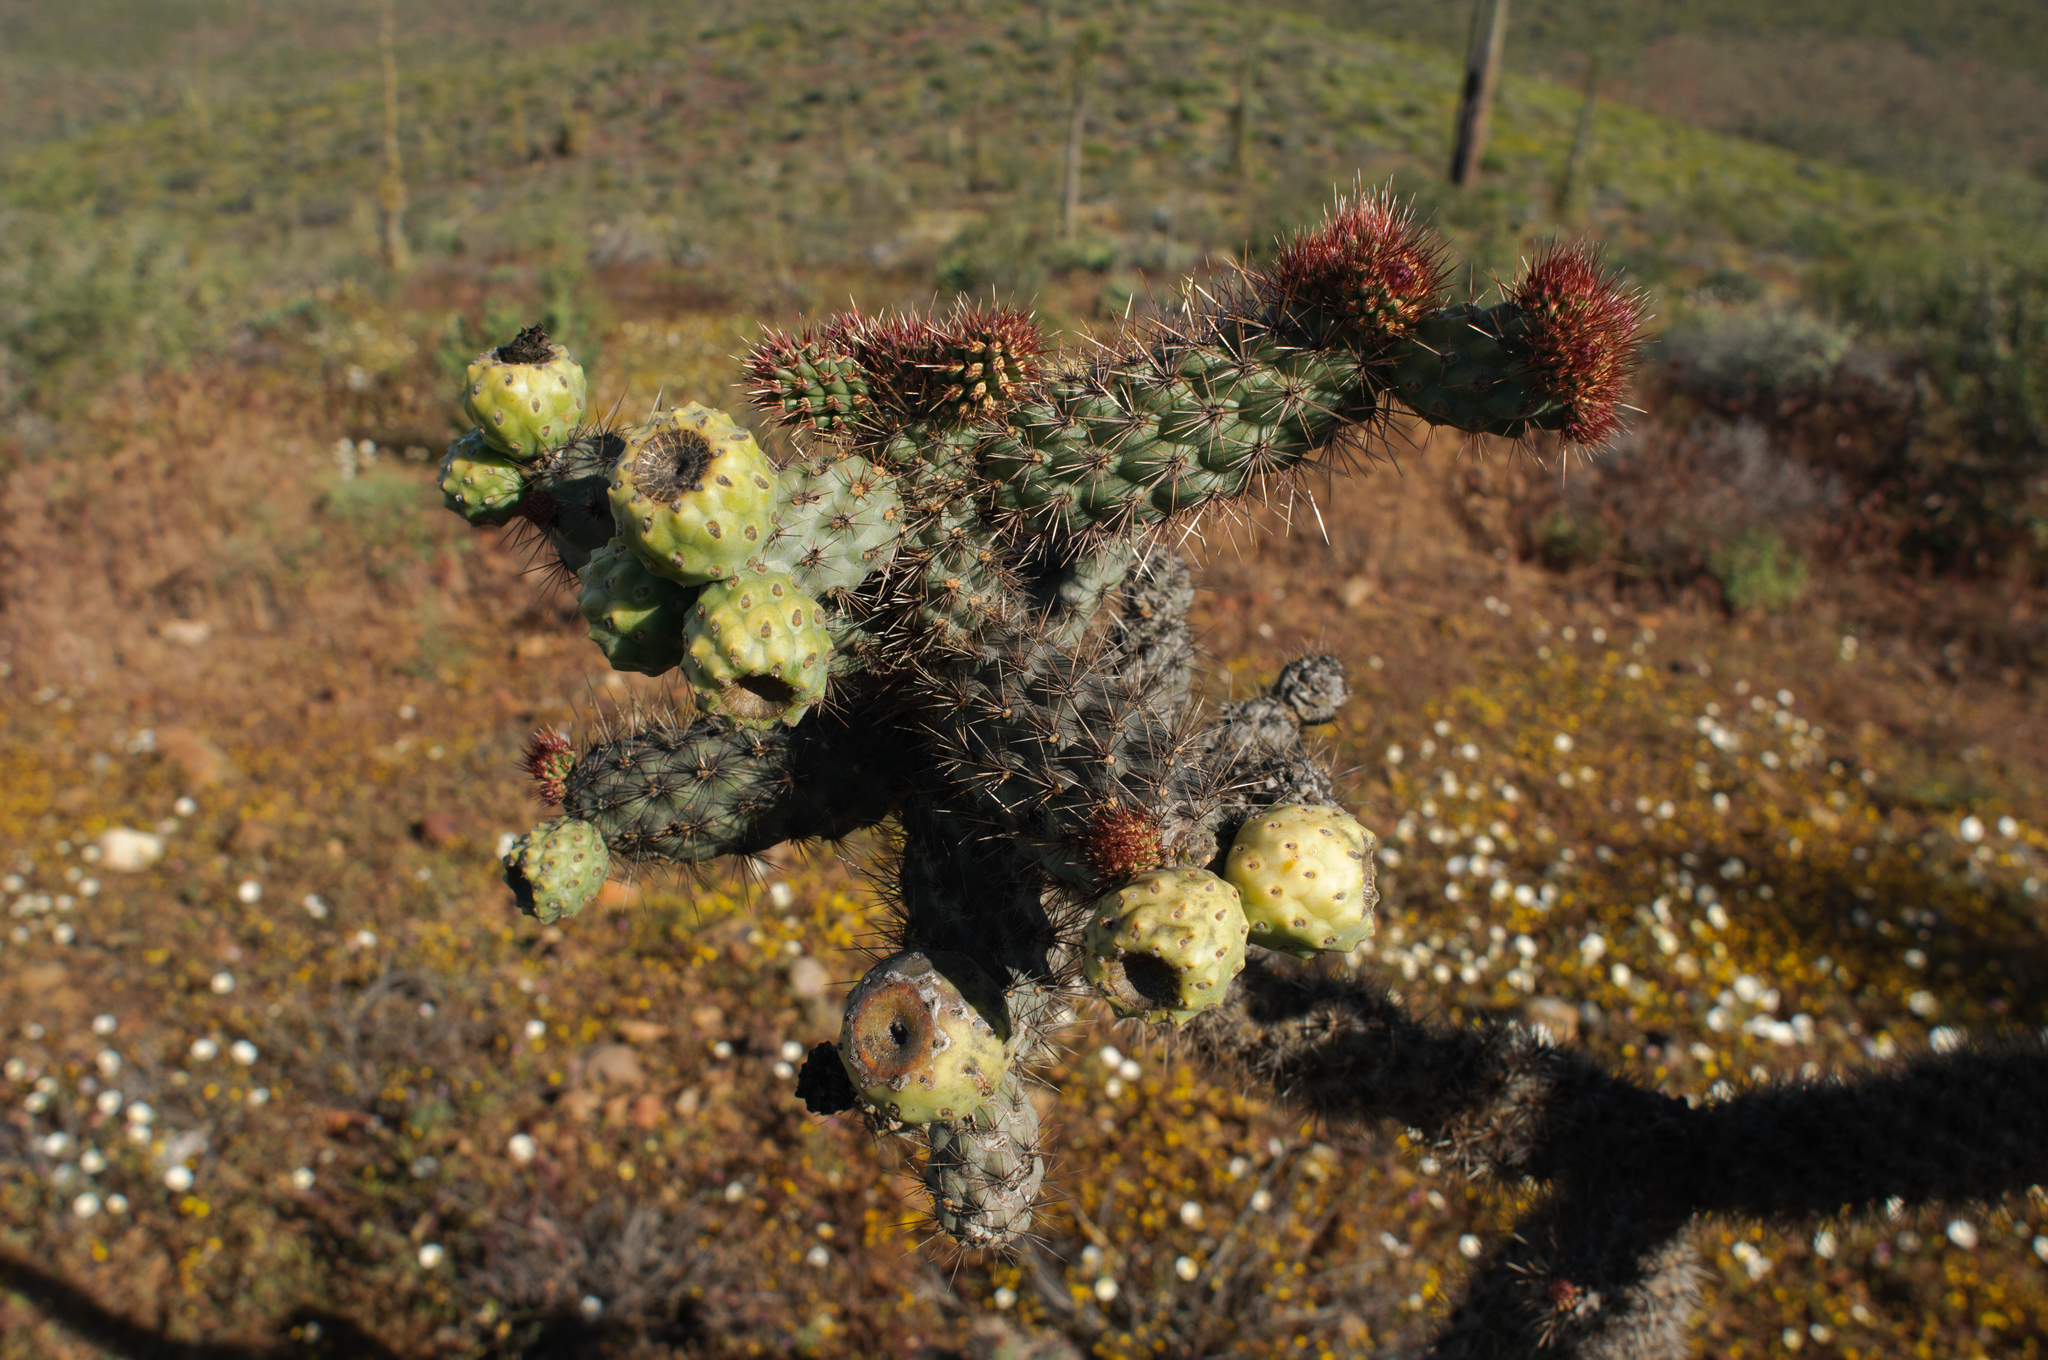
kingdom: Plantae
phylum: Tracheophyta
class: Magnoliopsida
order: Caryophyllales
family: Cactaceae
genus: Cylindropuntia
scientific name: Cylindropuntia alcahes
